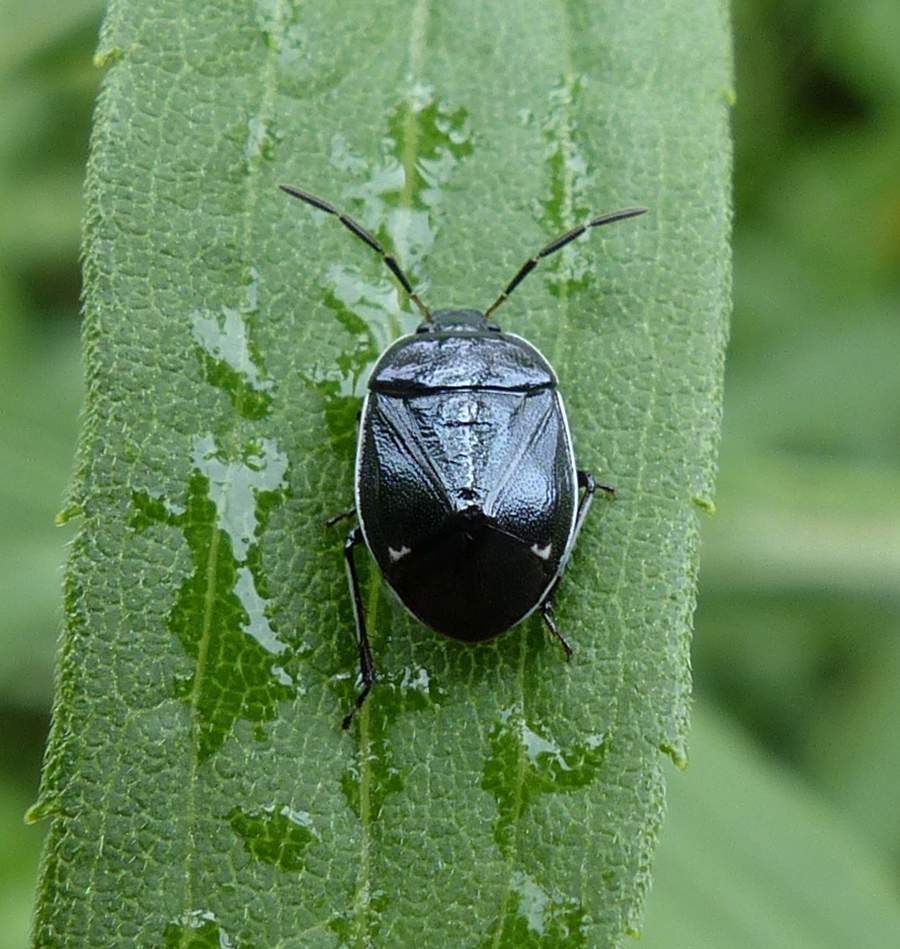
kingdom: Animalia
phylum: Arthropoda
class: Insecta
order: Hemiptera
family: Cydnidae
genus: Sehirus
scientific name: Sehirus cinctus
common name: White-margined burrower bug
